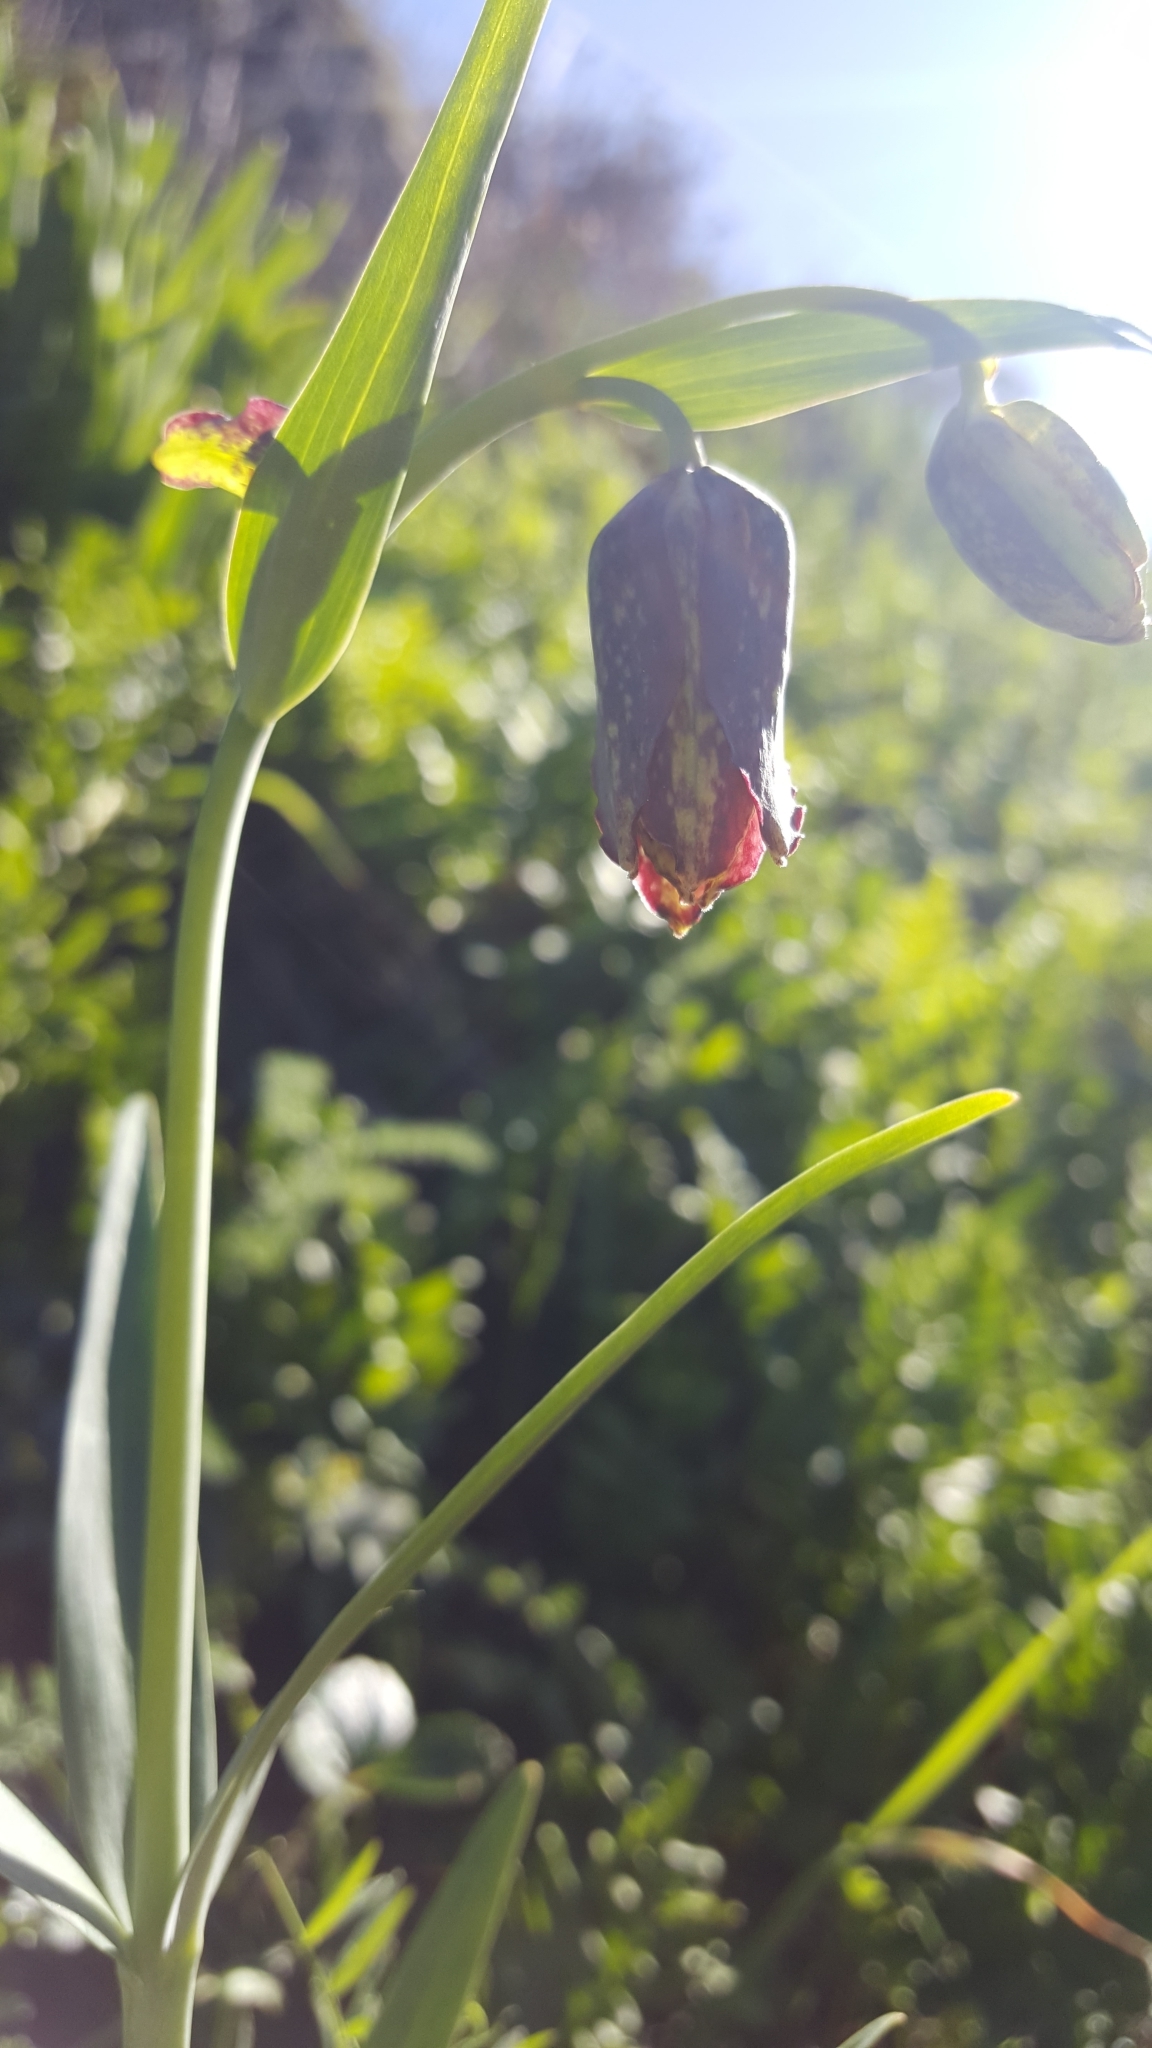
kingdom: Plantae
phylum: Tracheophyta
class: Liliopsida
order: Liliales
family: Liliaceae
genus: Fritillaria
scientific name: Fritillaria affinis
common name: Ojai fritillary
